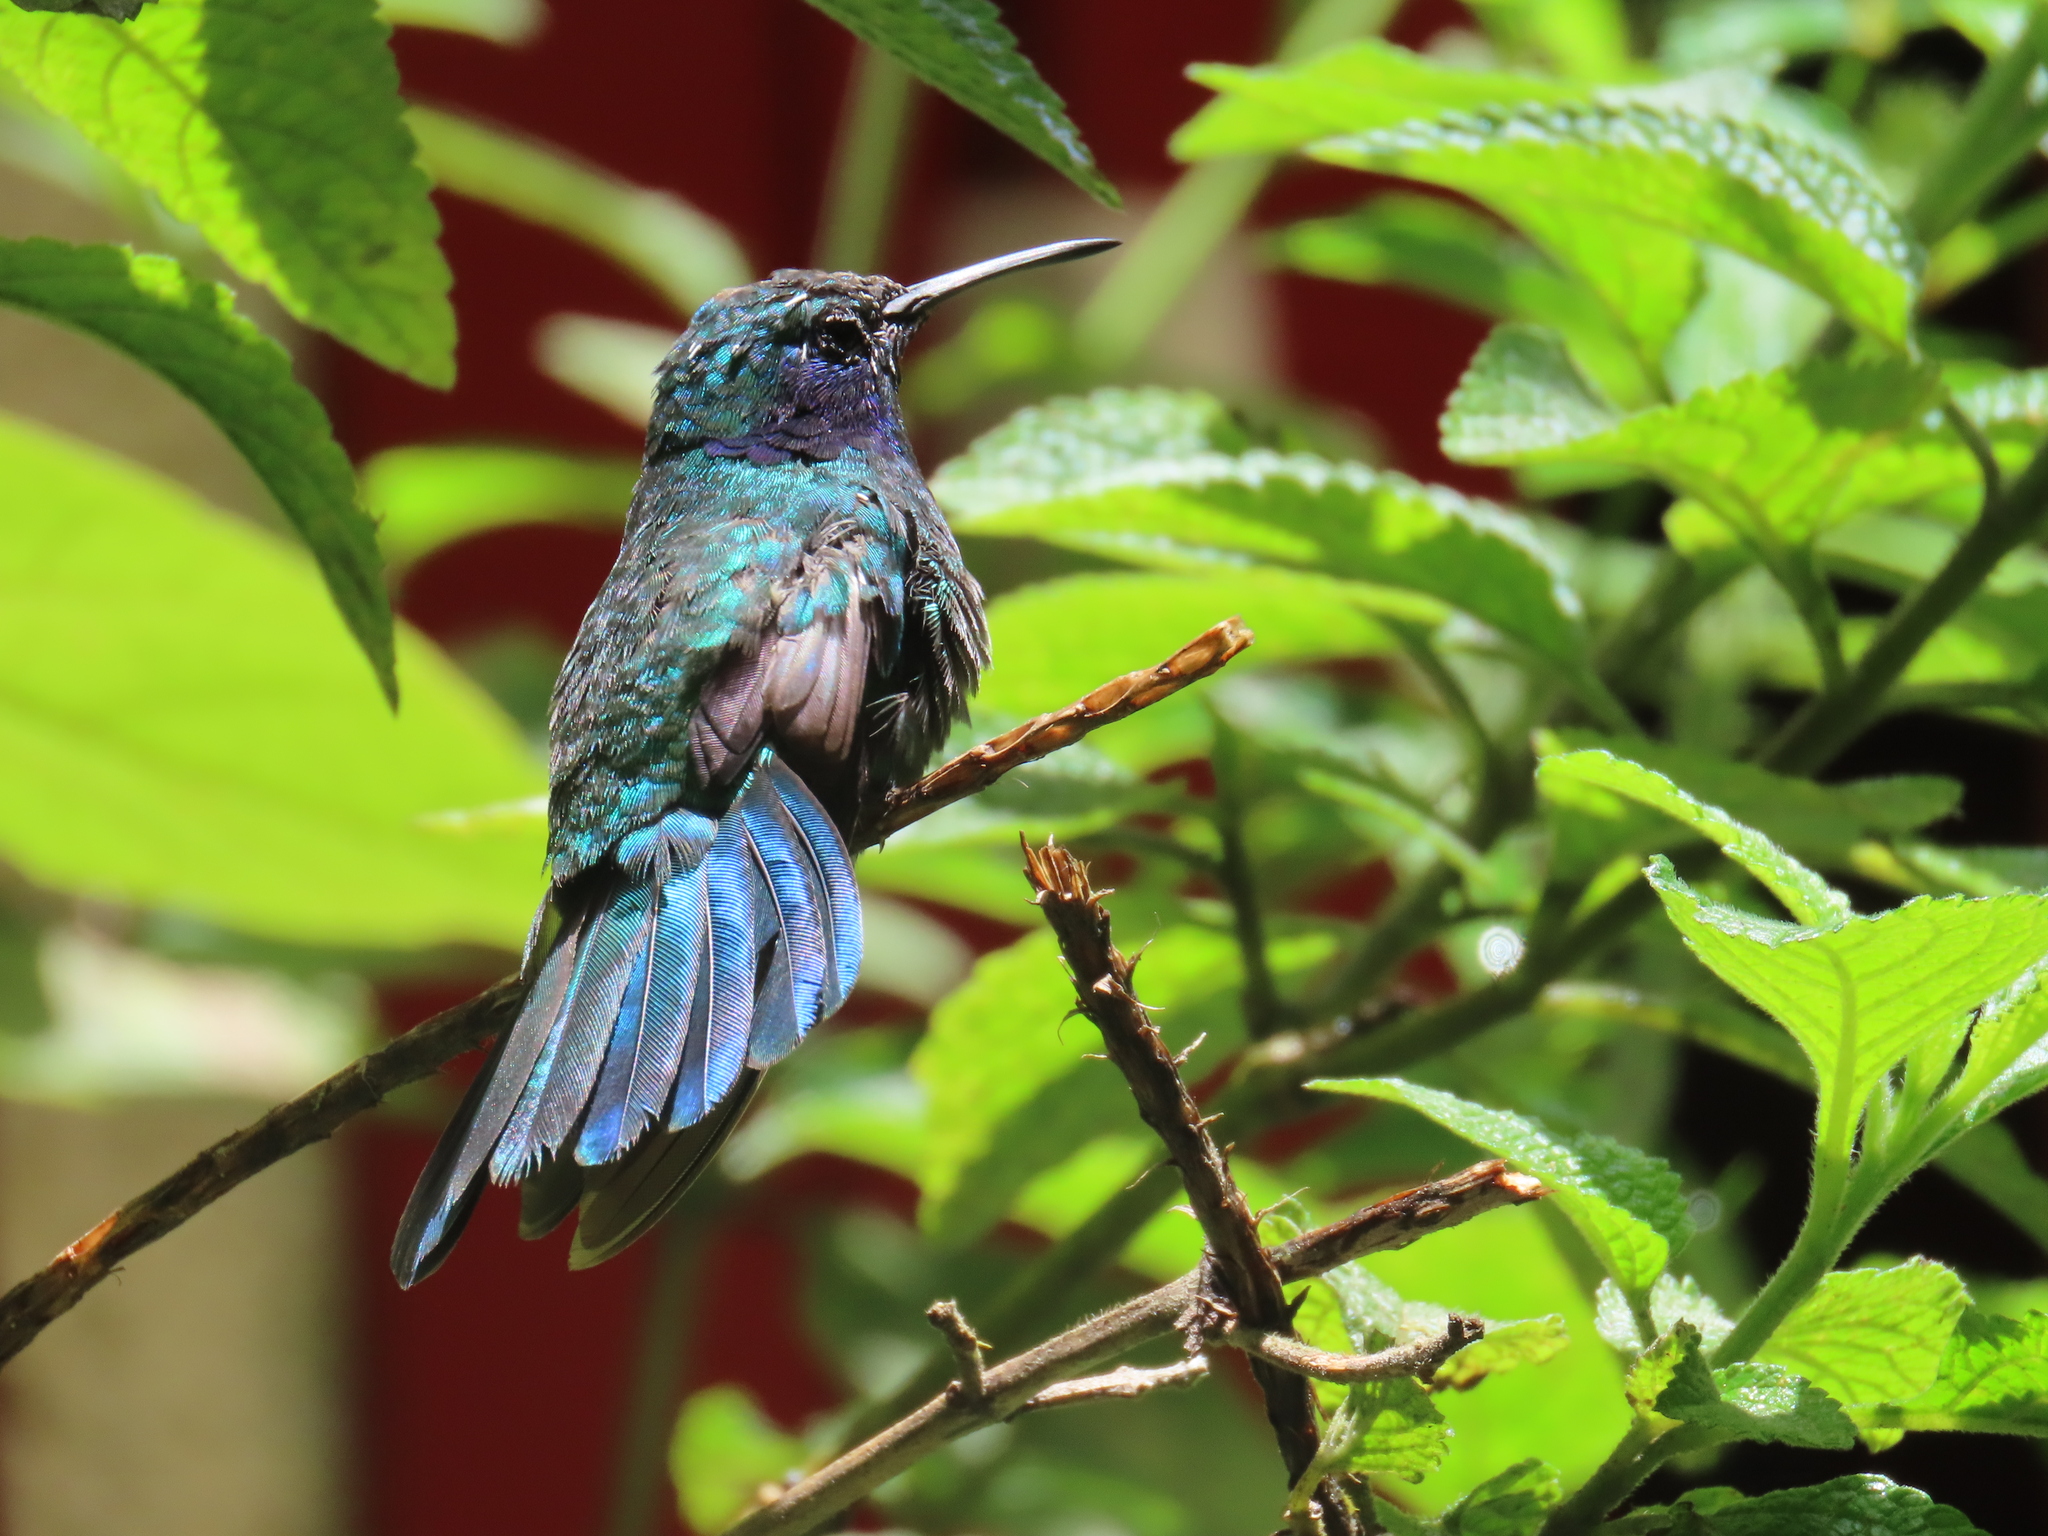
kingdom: Animalia
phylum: Chordata
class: Aves
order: Apodiformes
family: Trochilidae
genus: Colibri
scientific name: Colibri cyanotus
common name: Lesser violetear
